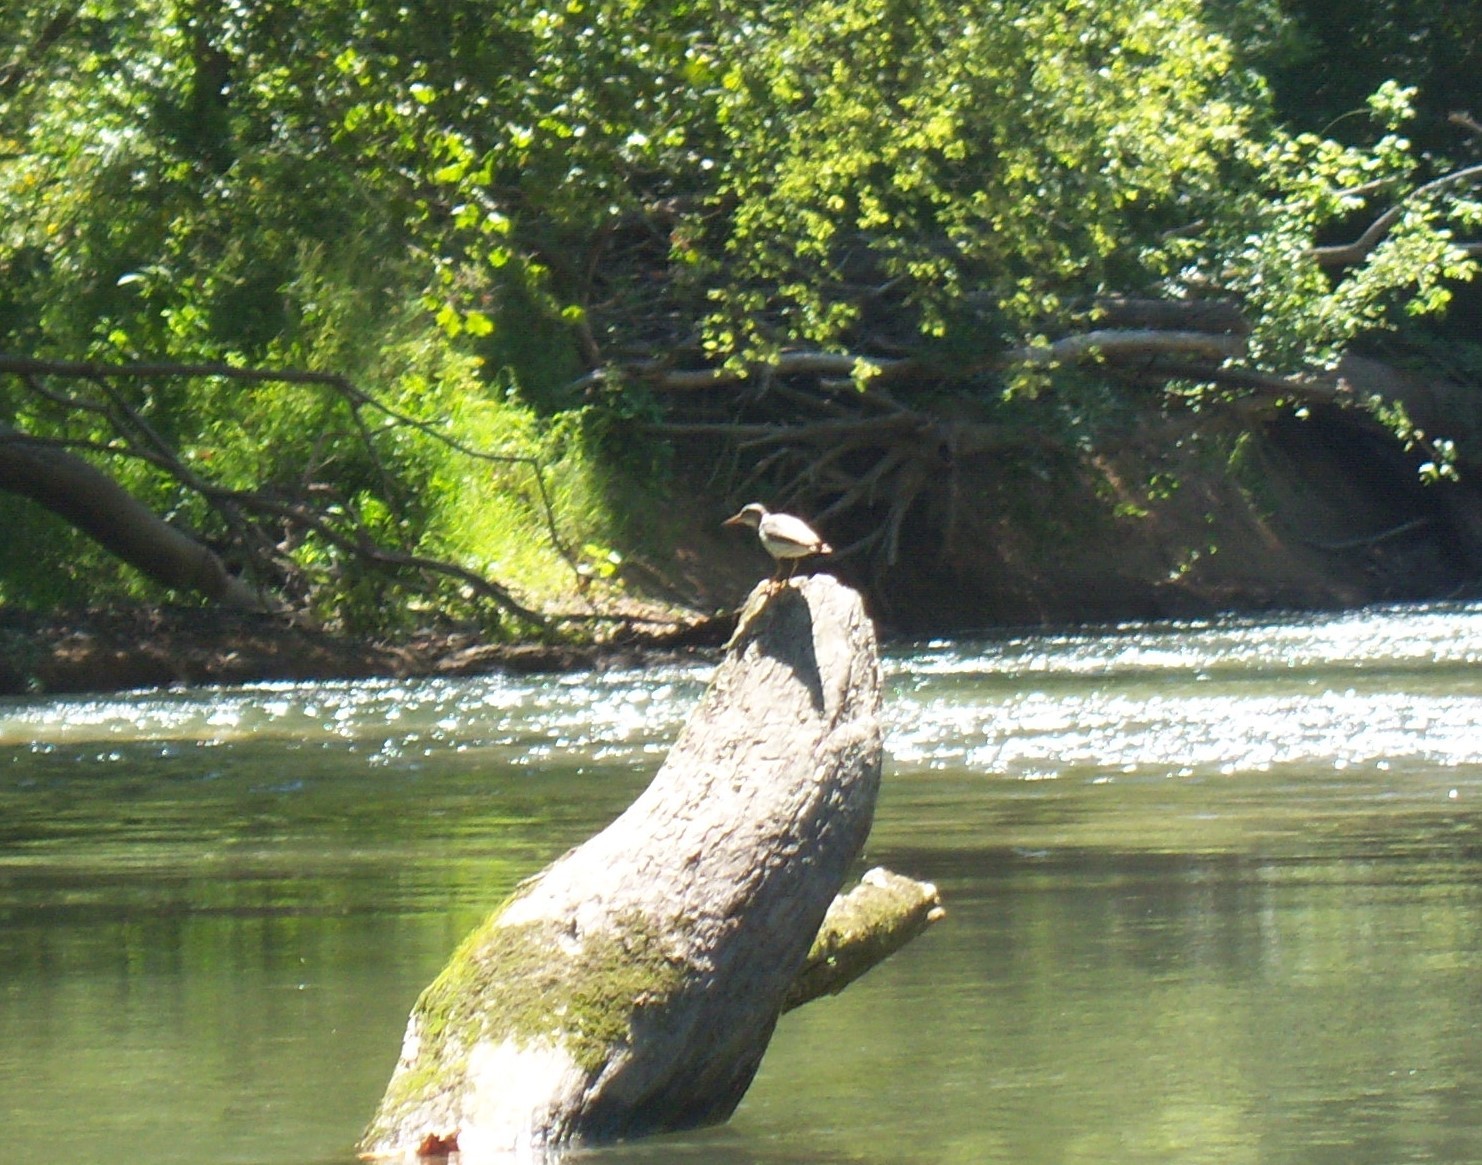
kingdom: Animalia
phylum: Chordata
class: Aves
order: Charadriiformes
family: Scolopacidae
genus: Actitis
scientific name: Actitis macularius
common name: Spotted sandpiper
